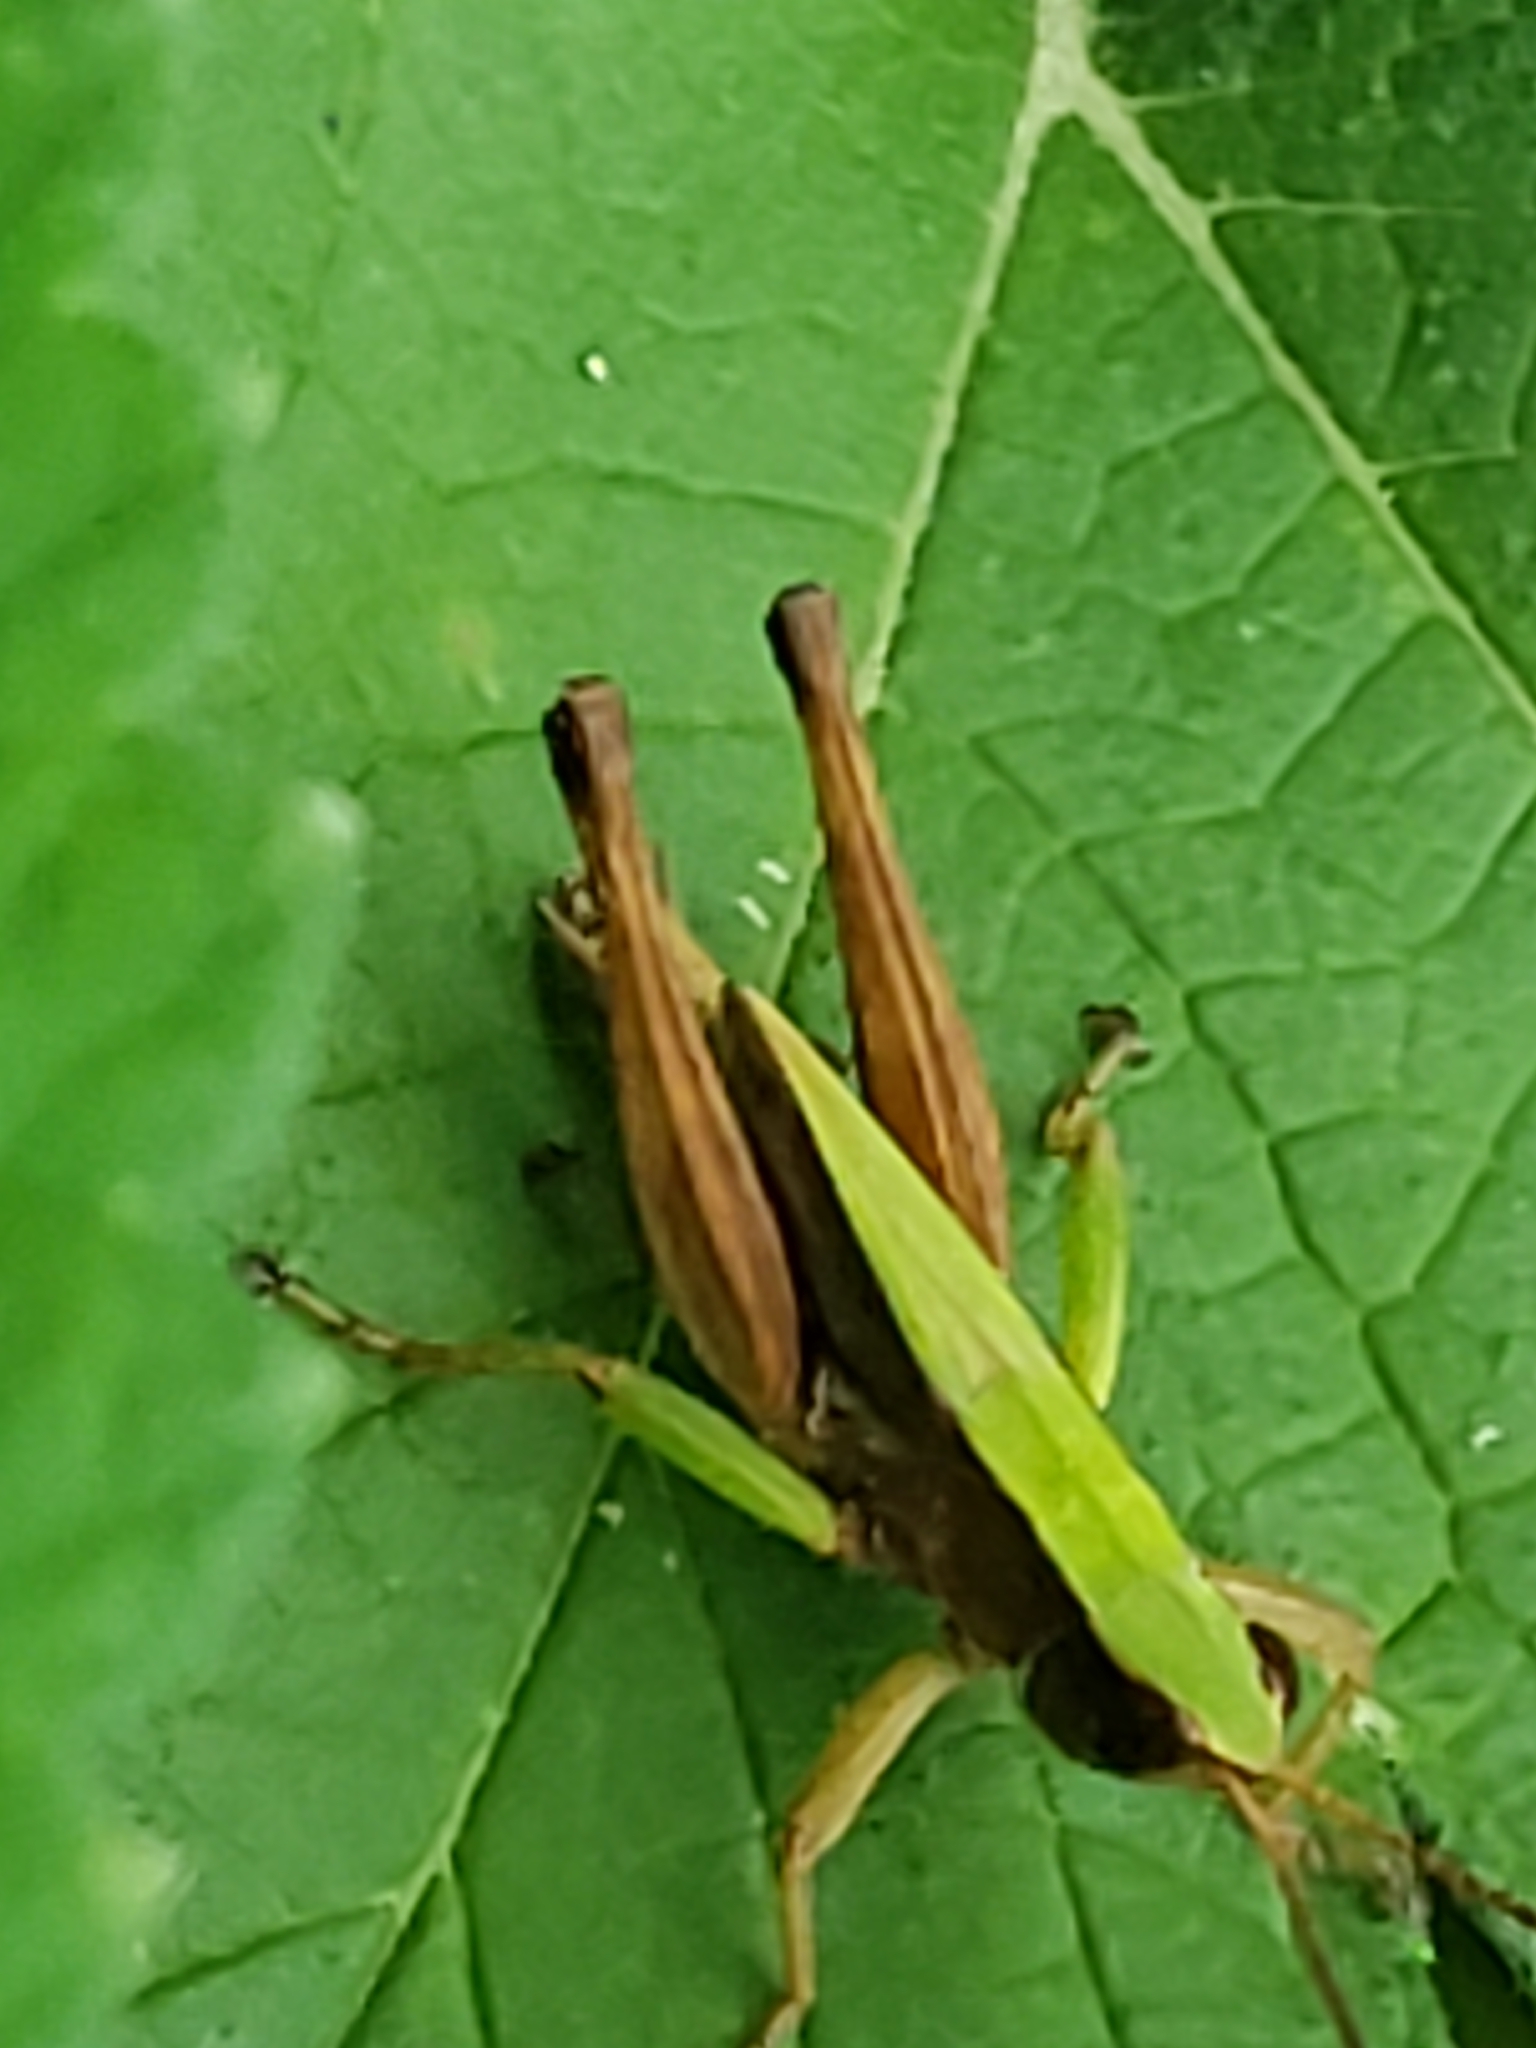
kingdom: Animalia
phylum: Arthropoda
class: Insecta
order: Orthoptera
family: Acrididae
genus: Dichromorpha
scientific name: Dichromorpha viridis
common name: Short-winged green grasshopper
